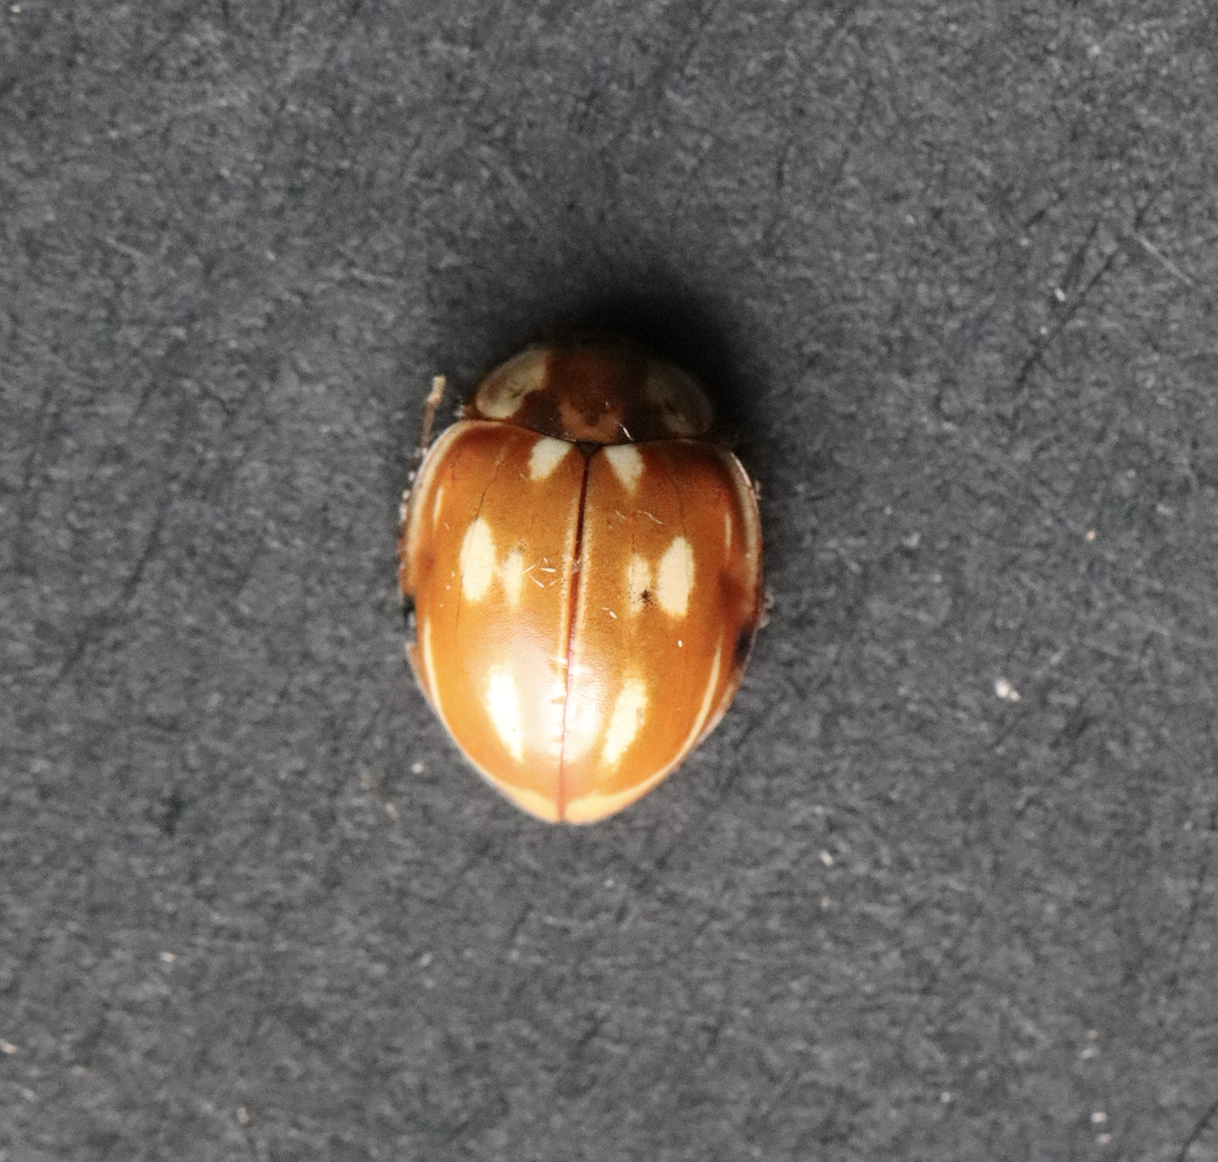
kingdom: Animalia
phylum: Arthropoda
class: Insecta
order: Coleoptera
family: Coccinellidae
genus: Myzia
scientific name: Myzia oblongoguttata
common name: Striped ladybird
